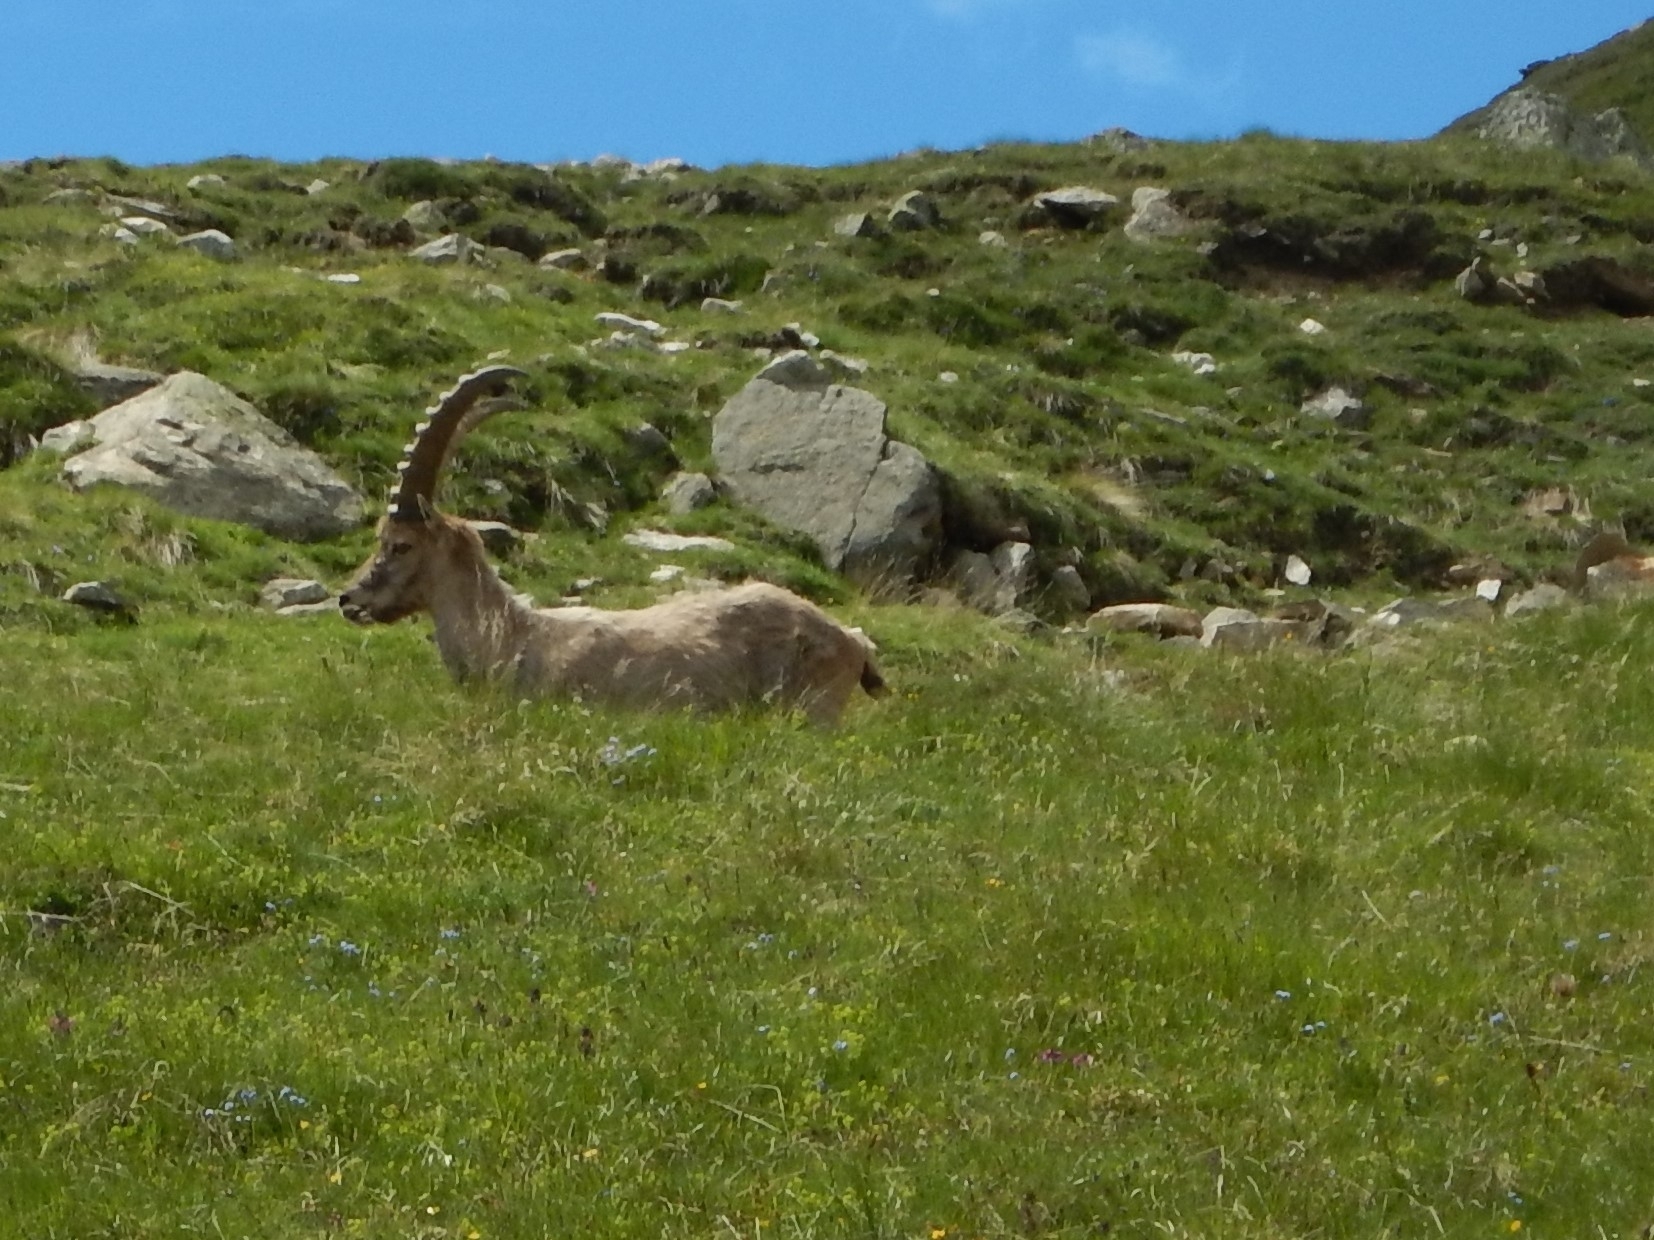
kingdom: Animalia
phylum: Chordata
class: Mammalia
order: Artiodactyla
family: Bovidae
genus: Capra
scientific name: Capra ibex
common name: Alpine ibex
